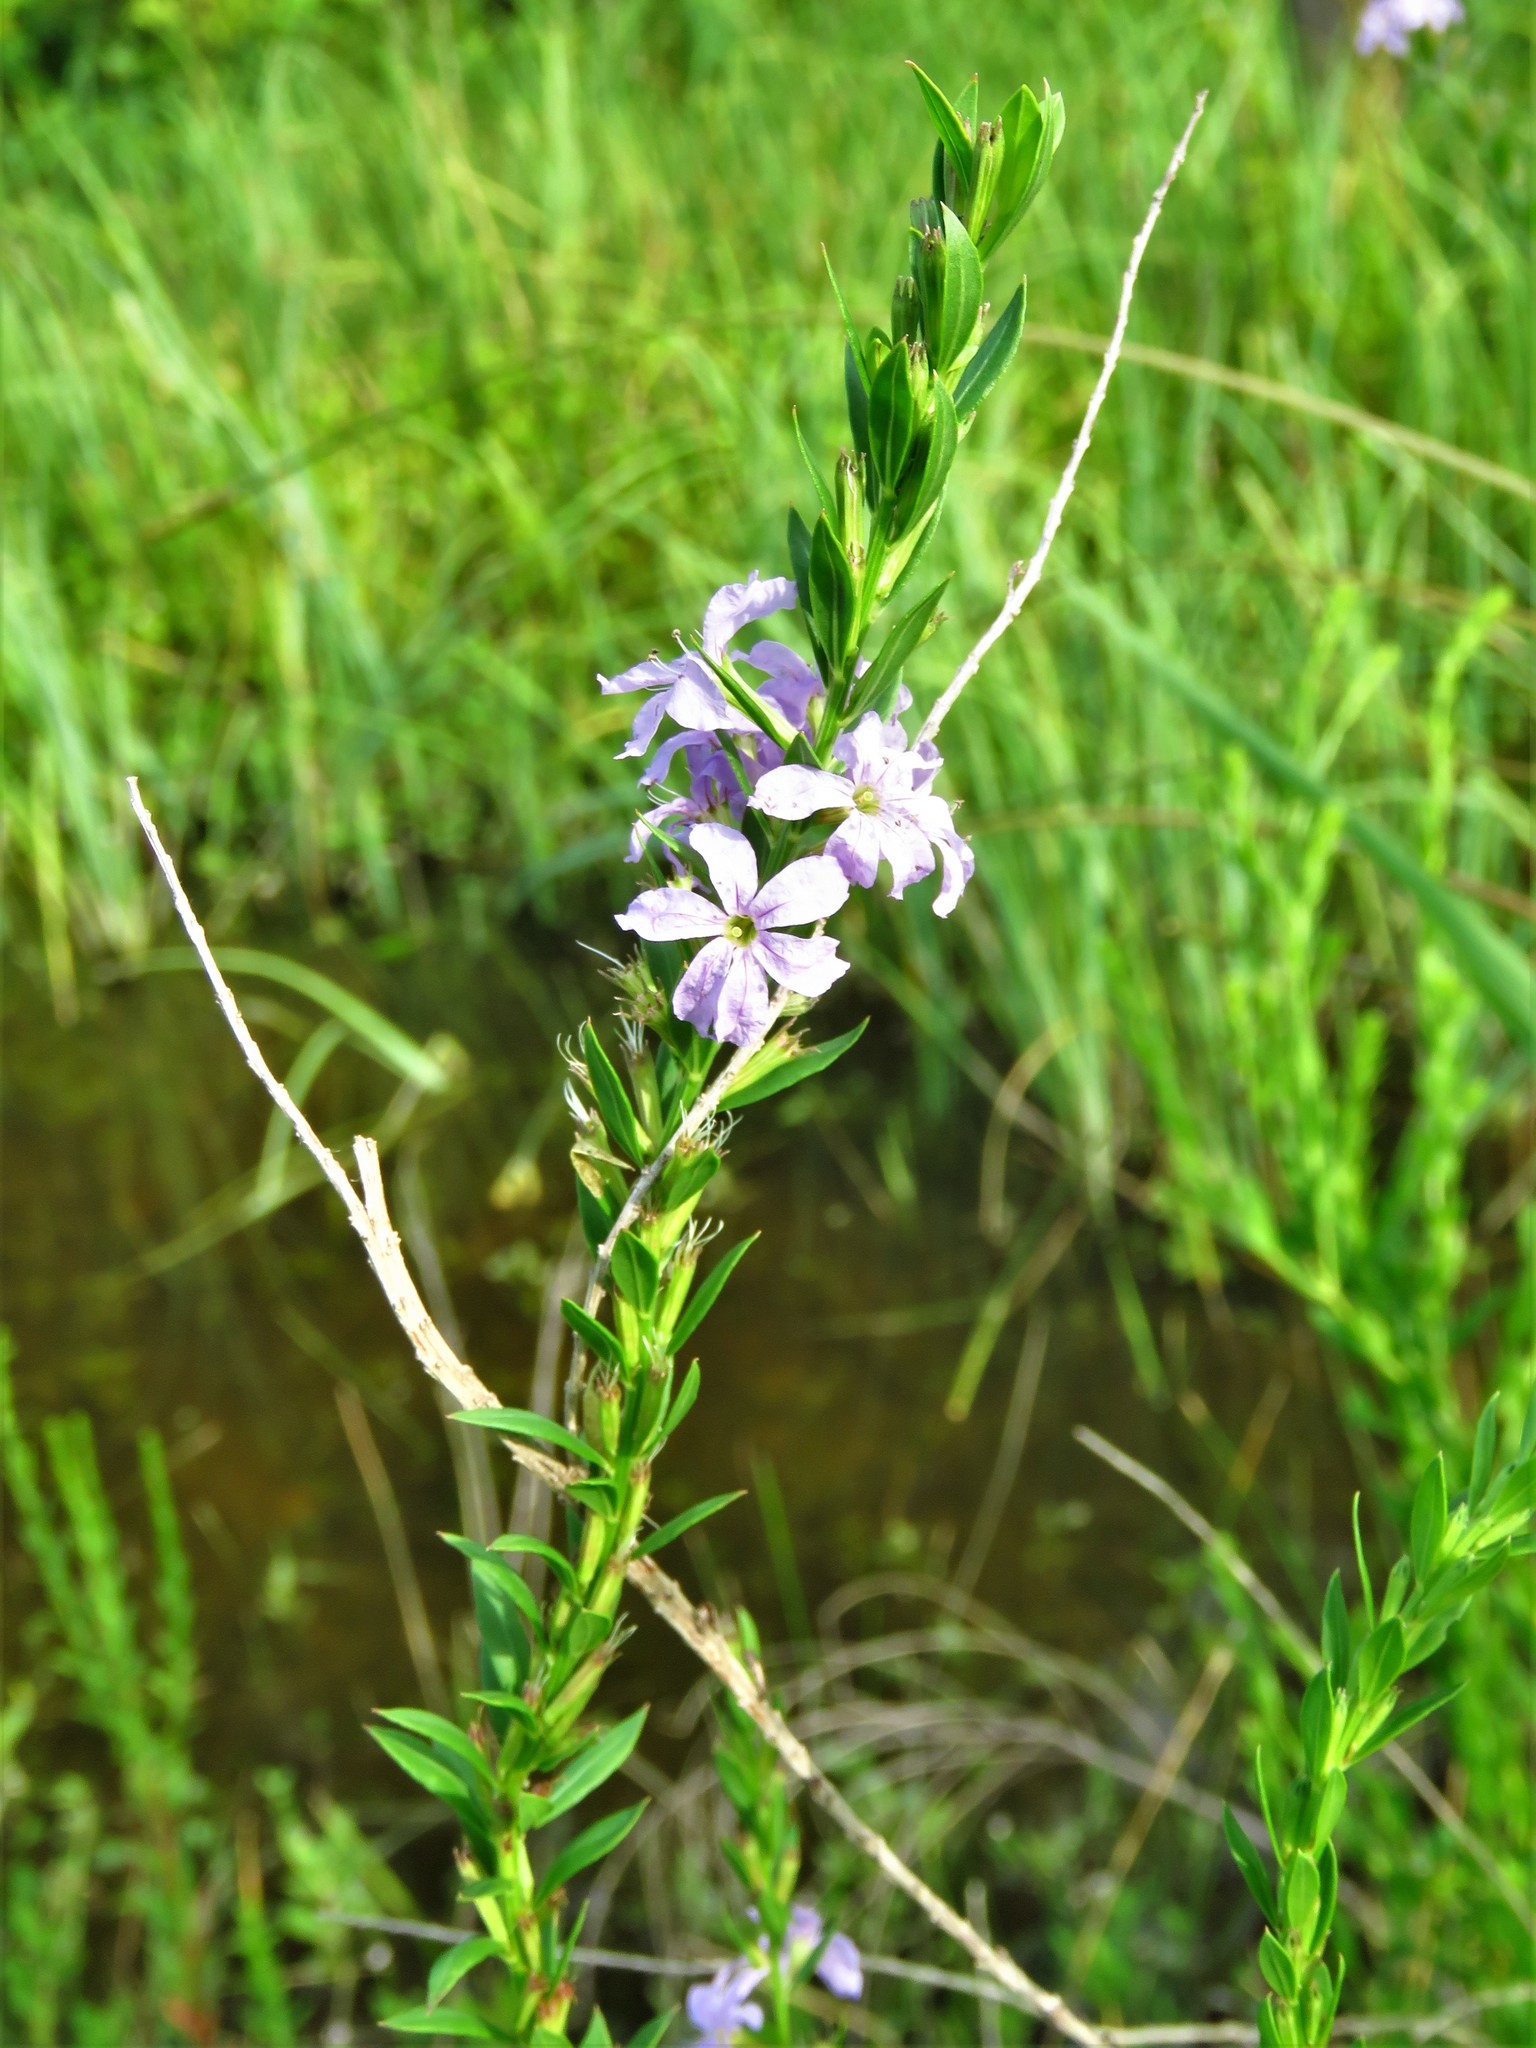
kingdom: Plantae
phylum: Tracheophyta
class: Magnoliopsida
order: Myrtales
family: Lythraceae
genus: Lythrum
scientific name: Lythrum alatum
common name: Winged loosestrife
